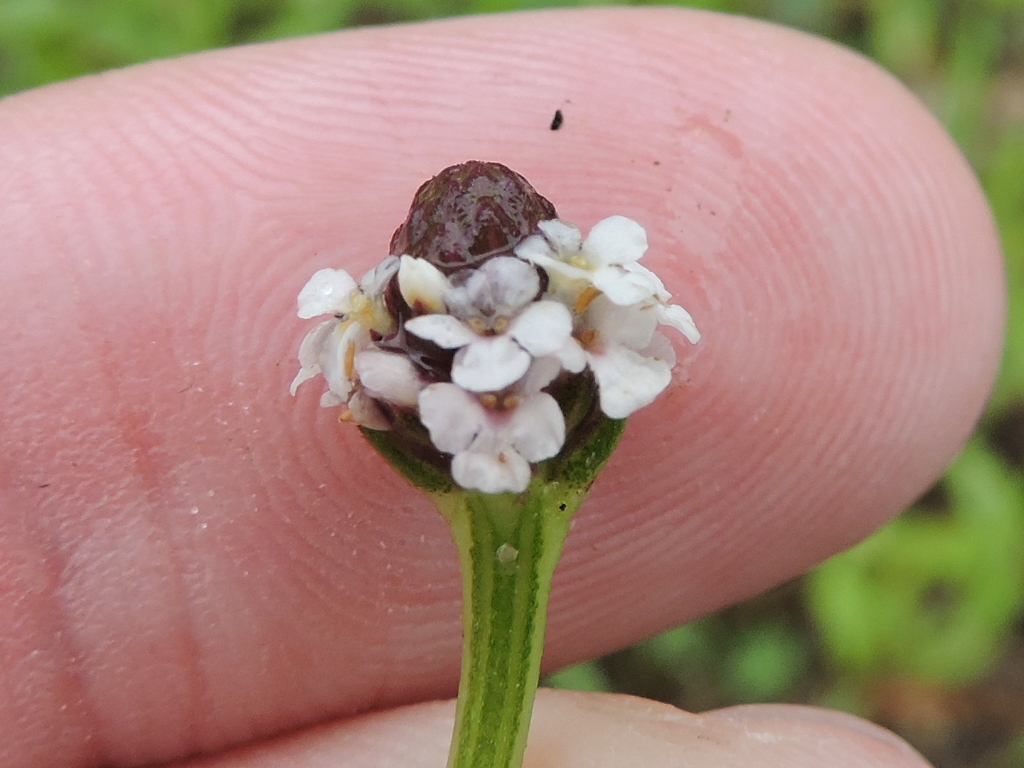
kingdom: Plantae
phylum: Tracheophyta
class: Magnoliopsida
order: Lamiales
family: Verbenaceae
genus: Phyla
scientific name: Phyla nodiflora
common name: Frogfruit
